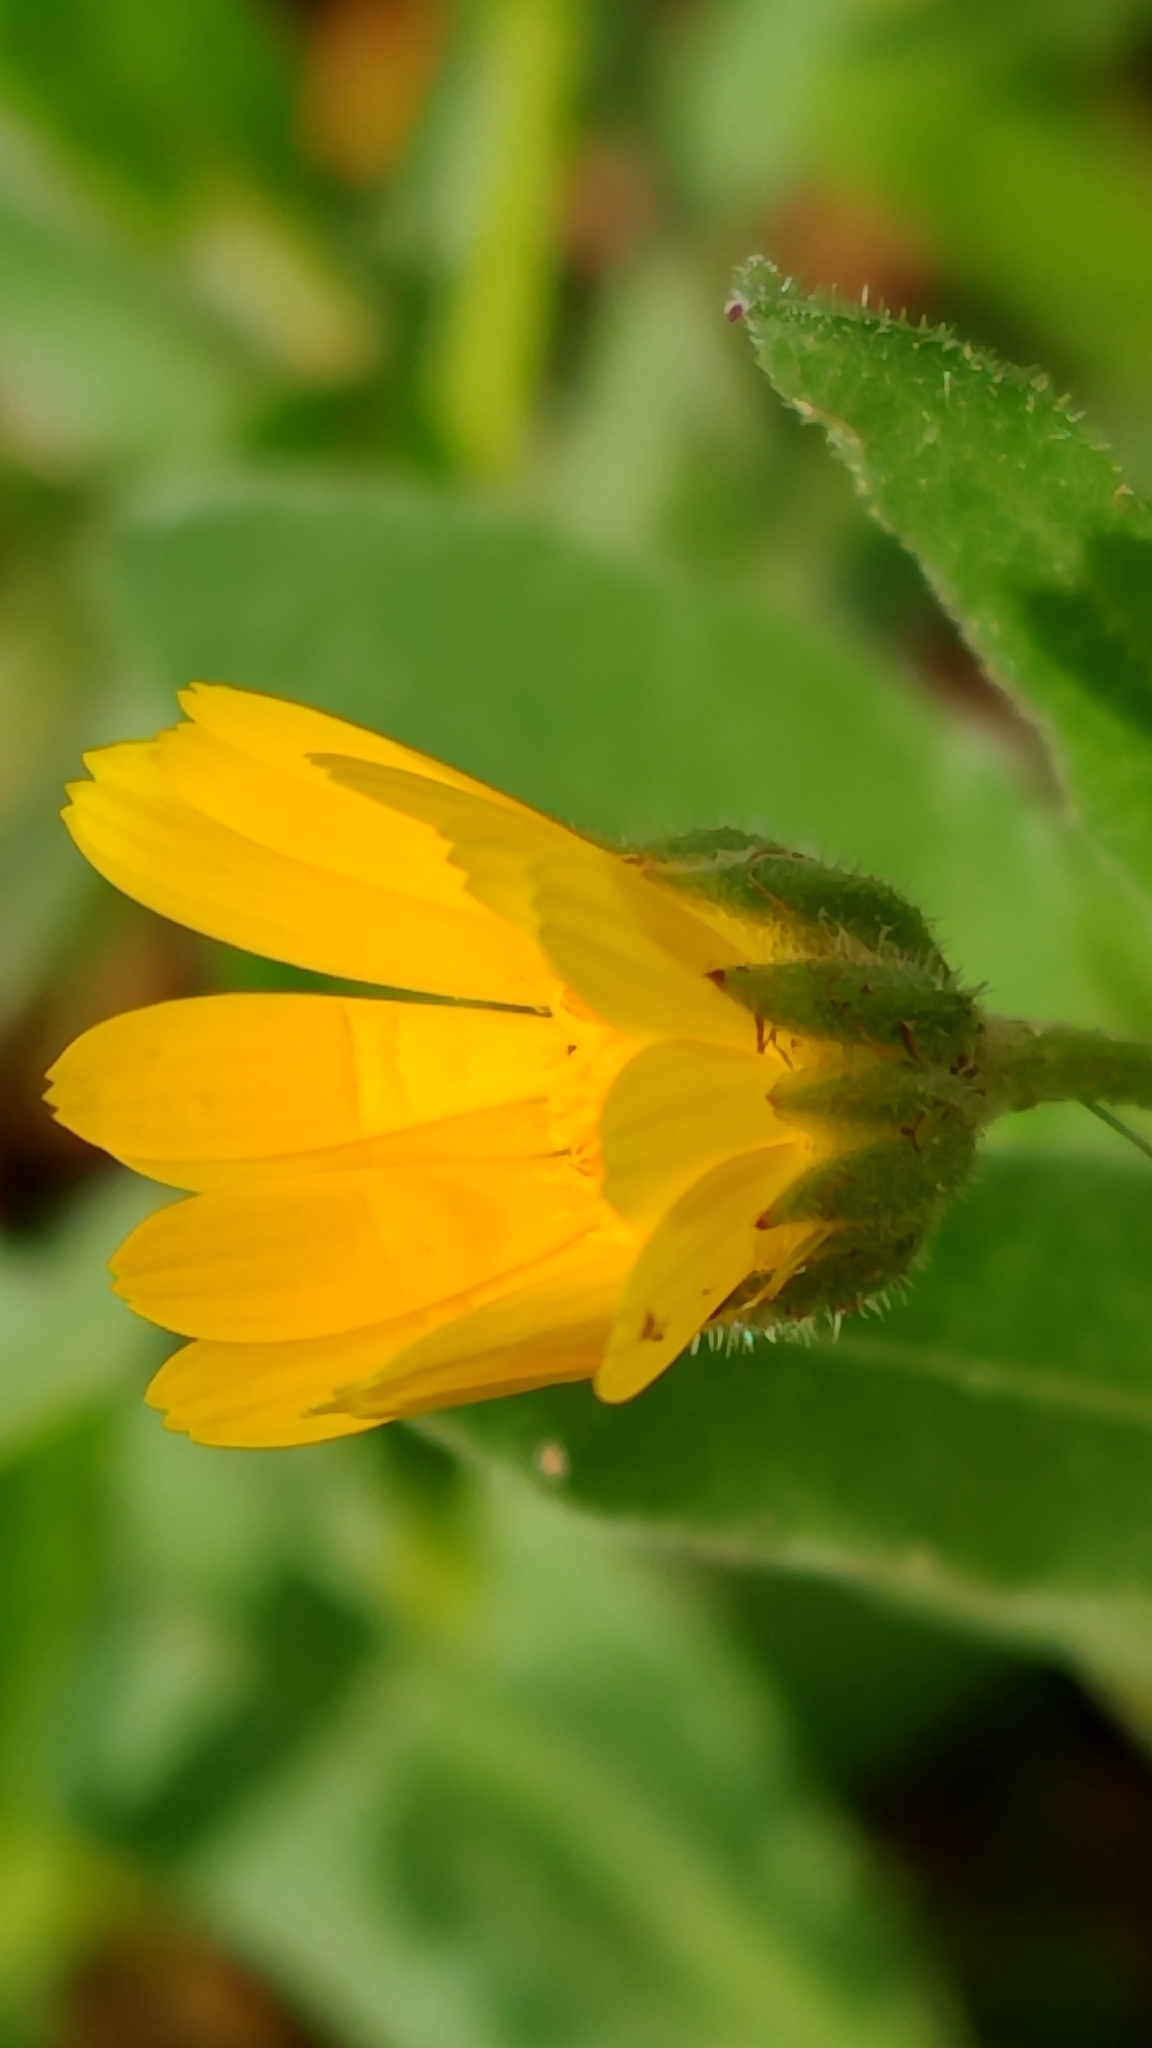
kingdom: Plantae
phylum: Tracheophyta
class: Magnoliopsida
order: Asterales
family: Asteraceae
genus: Calendula
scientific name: Calendula arvensis
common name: Field marigold
